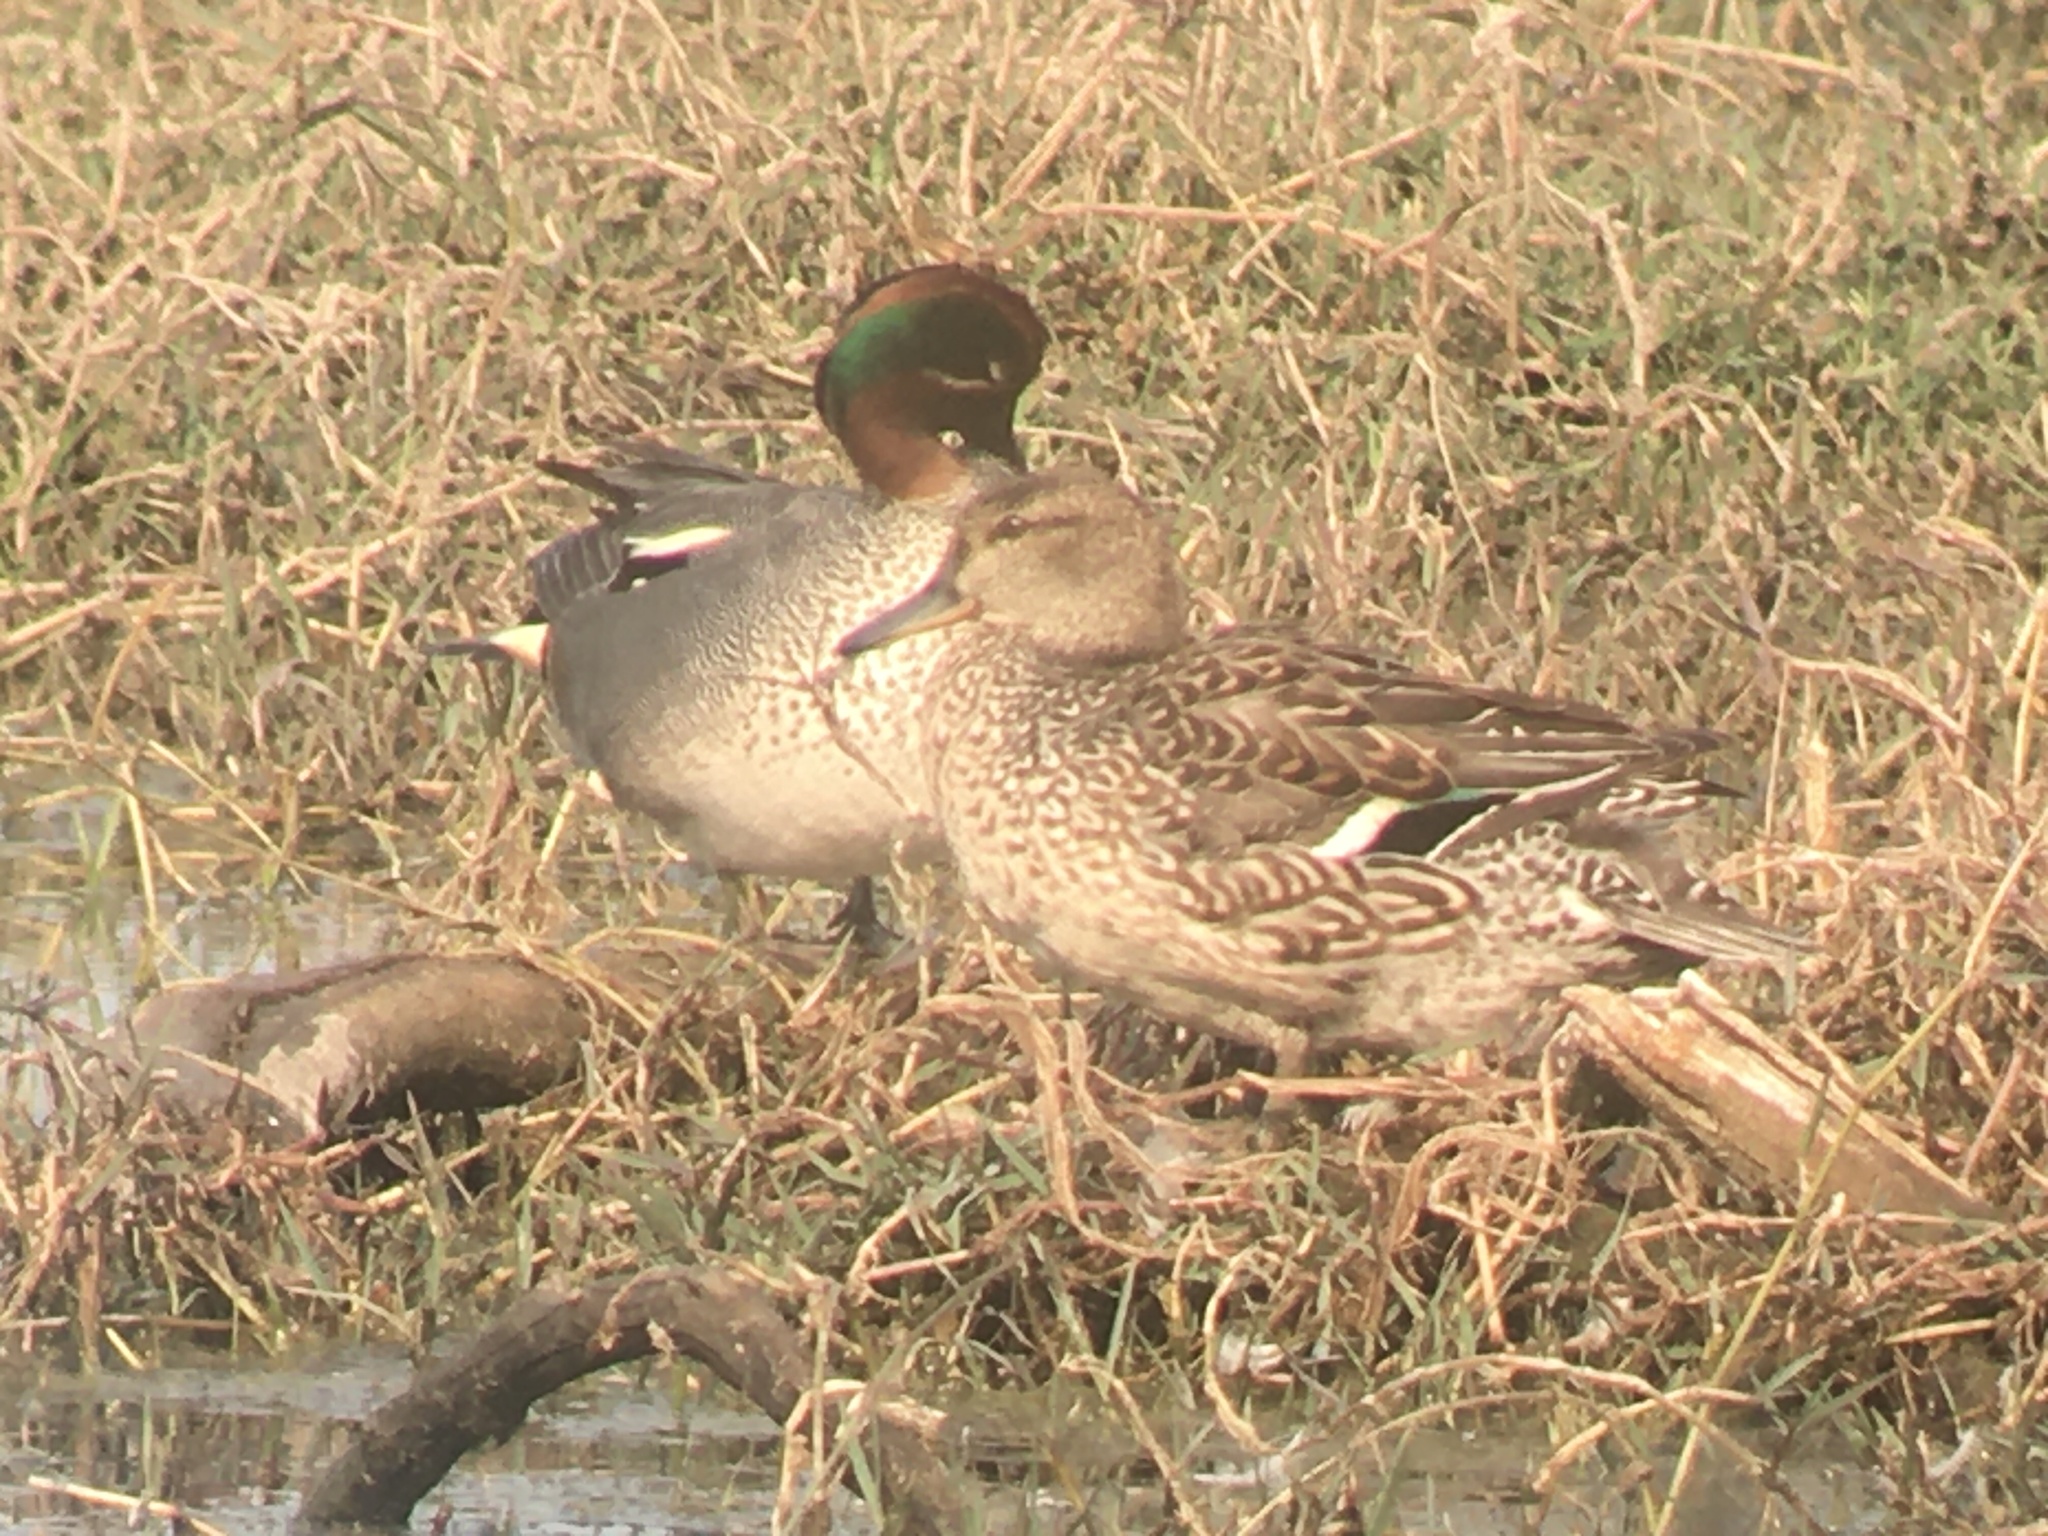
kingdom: Animalia
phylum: Chordata
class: Aves
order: Anseriformes
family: Anatidae
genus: Anas
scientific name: Anas crecca
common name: Eurasian teal
